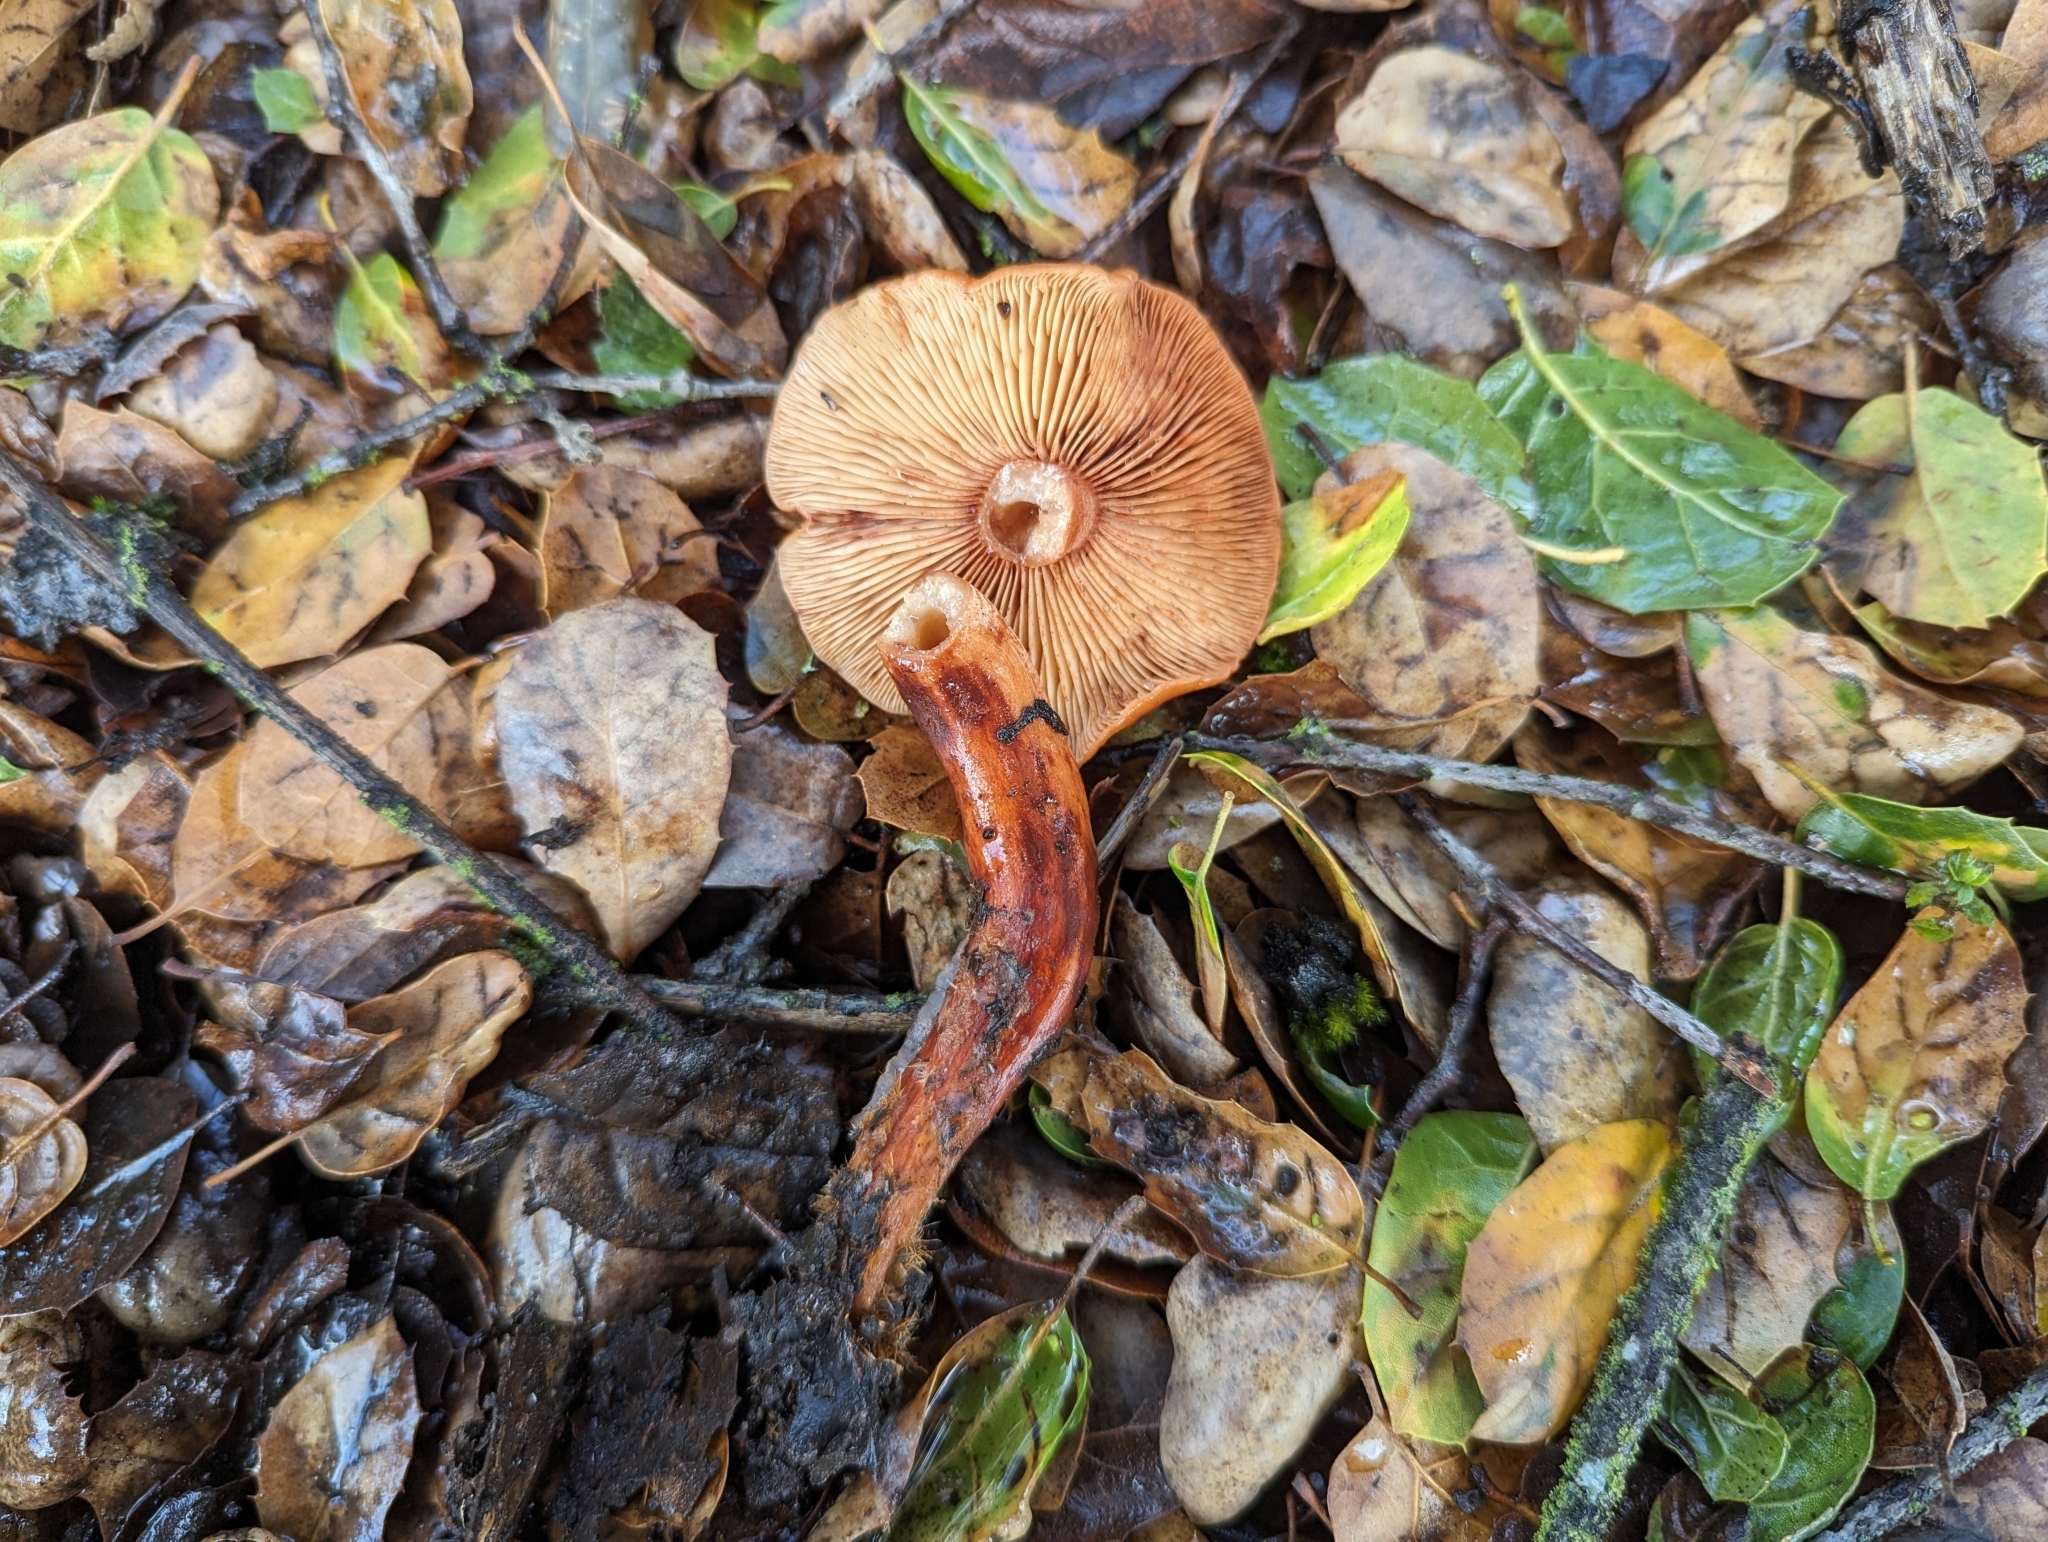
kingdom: Fungi
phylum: Basidiomycota
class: Agaricomycetes
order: Russulales
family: Russulaceae
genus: Lactarius
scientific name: Lactarius rufulus
